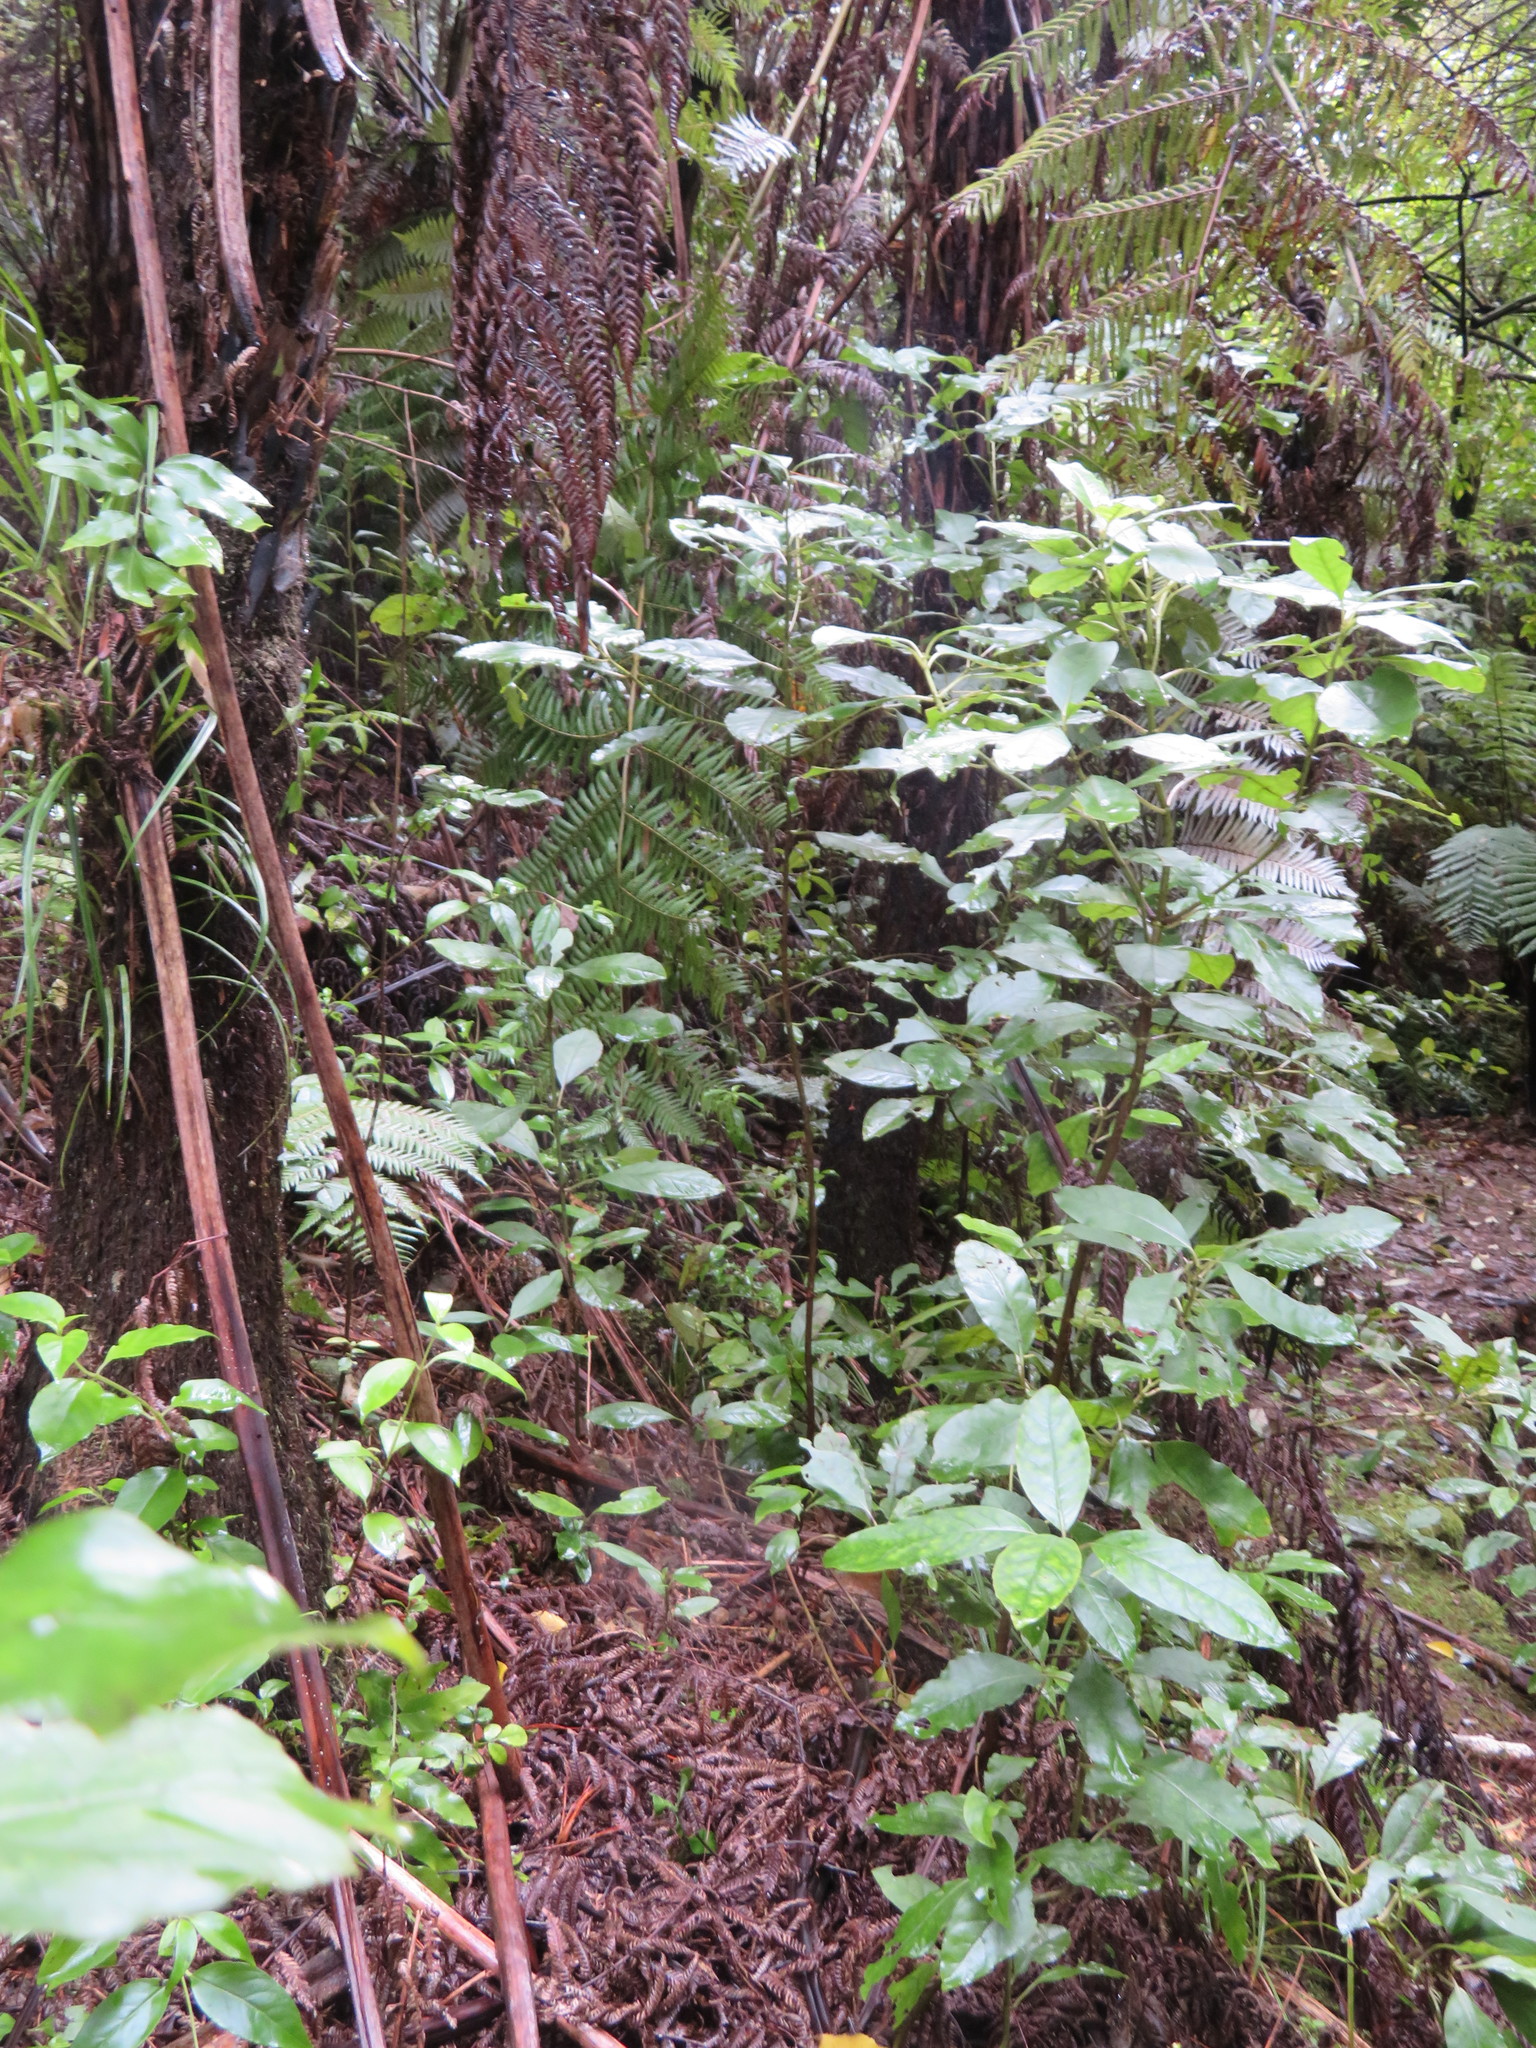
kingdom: Plantae
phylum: Tracheophyta
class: Magnoliopsida
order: Gentianales
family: Rubiaceae
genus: Coprosma
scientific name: Coprosma autumnalis
